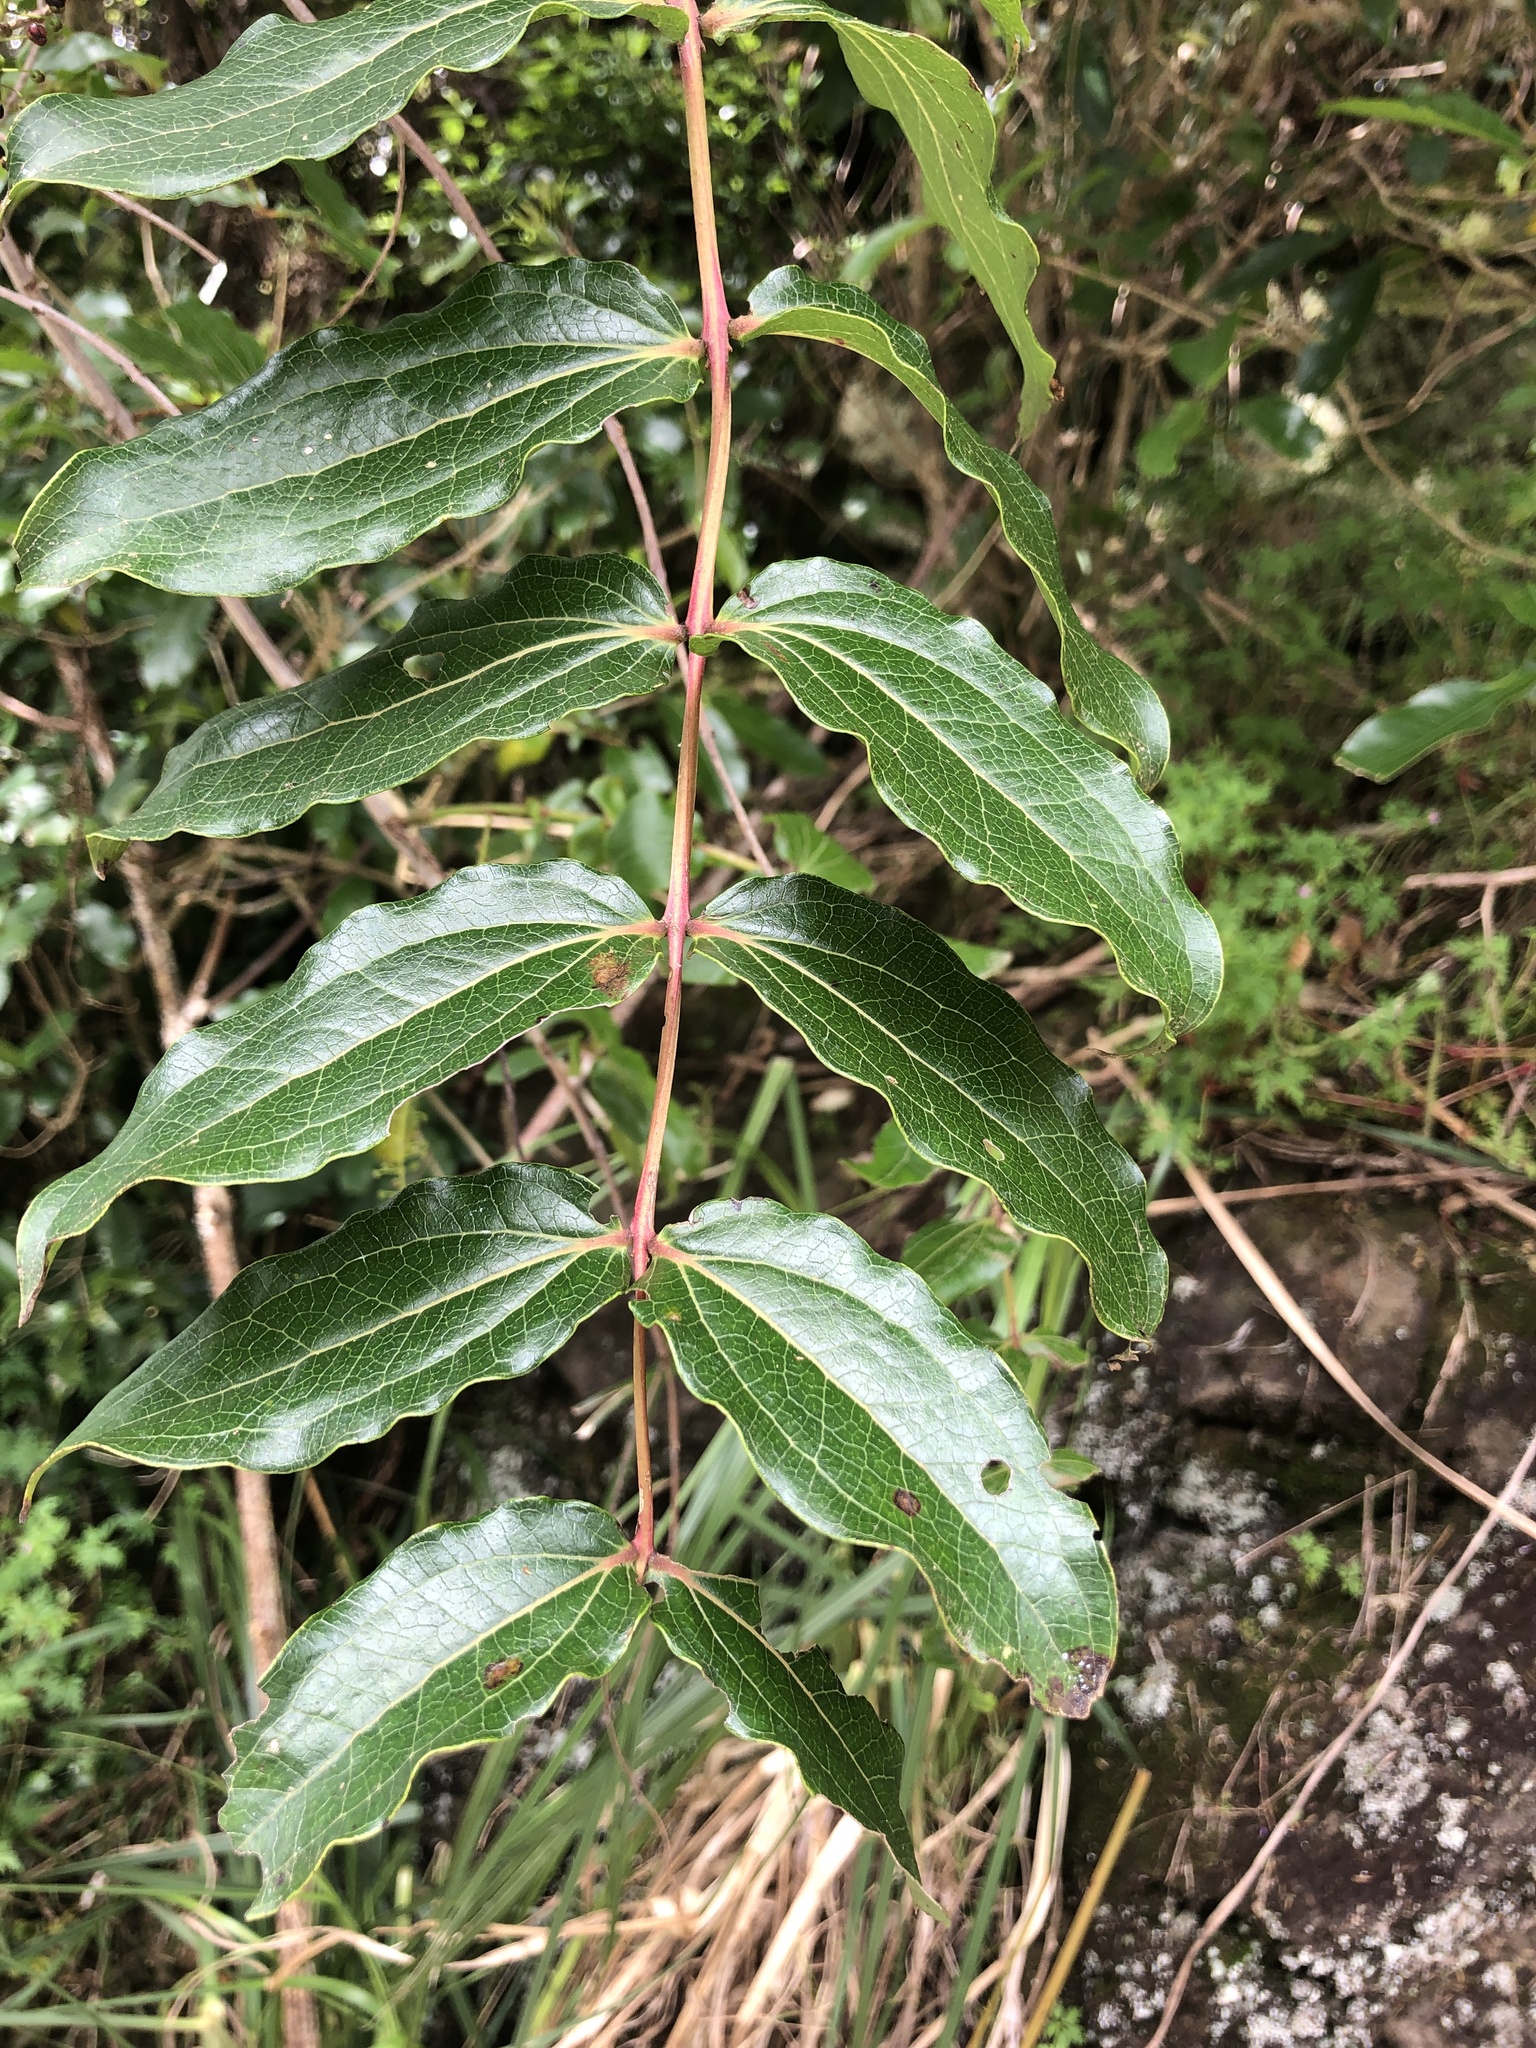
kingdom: Plantae
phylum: Tracheophyta
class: Magnoliopsida
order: Cucurbitales
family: Coriariaceae
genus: Coriaria
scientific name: Coriaria arborea
